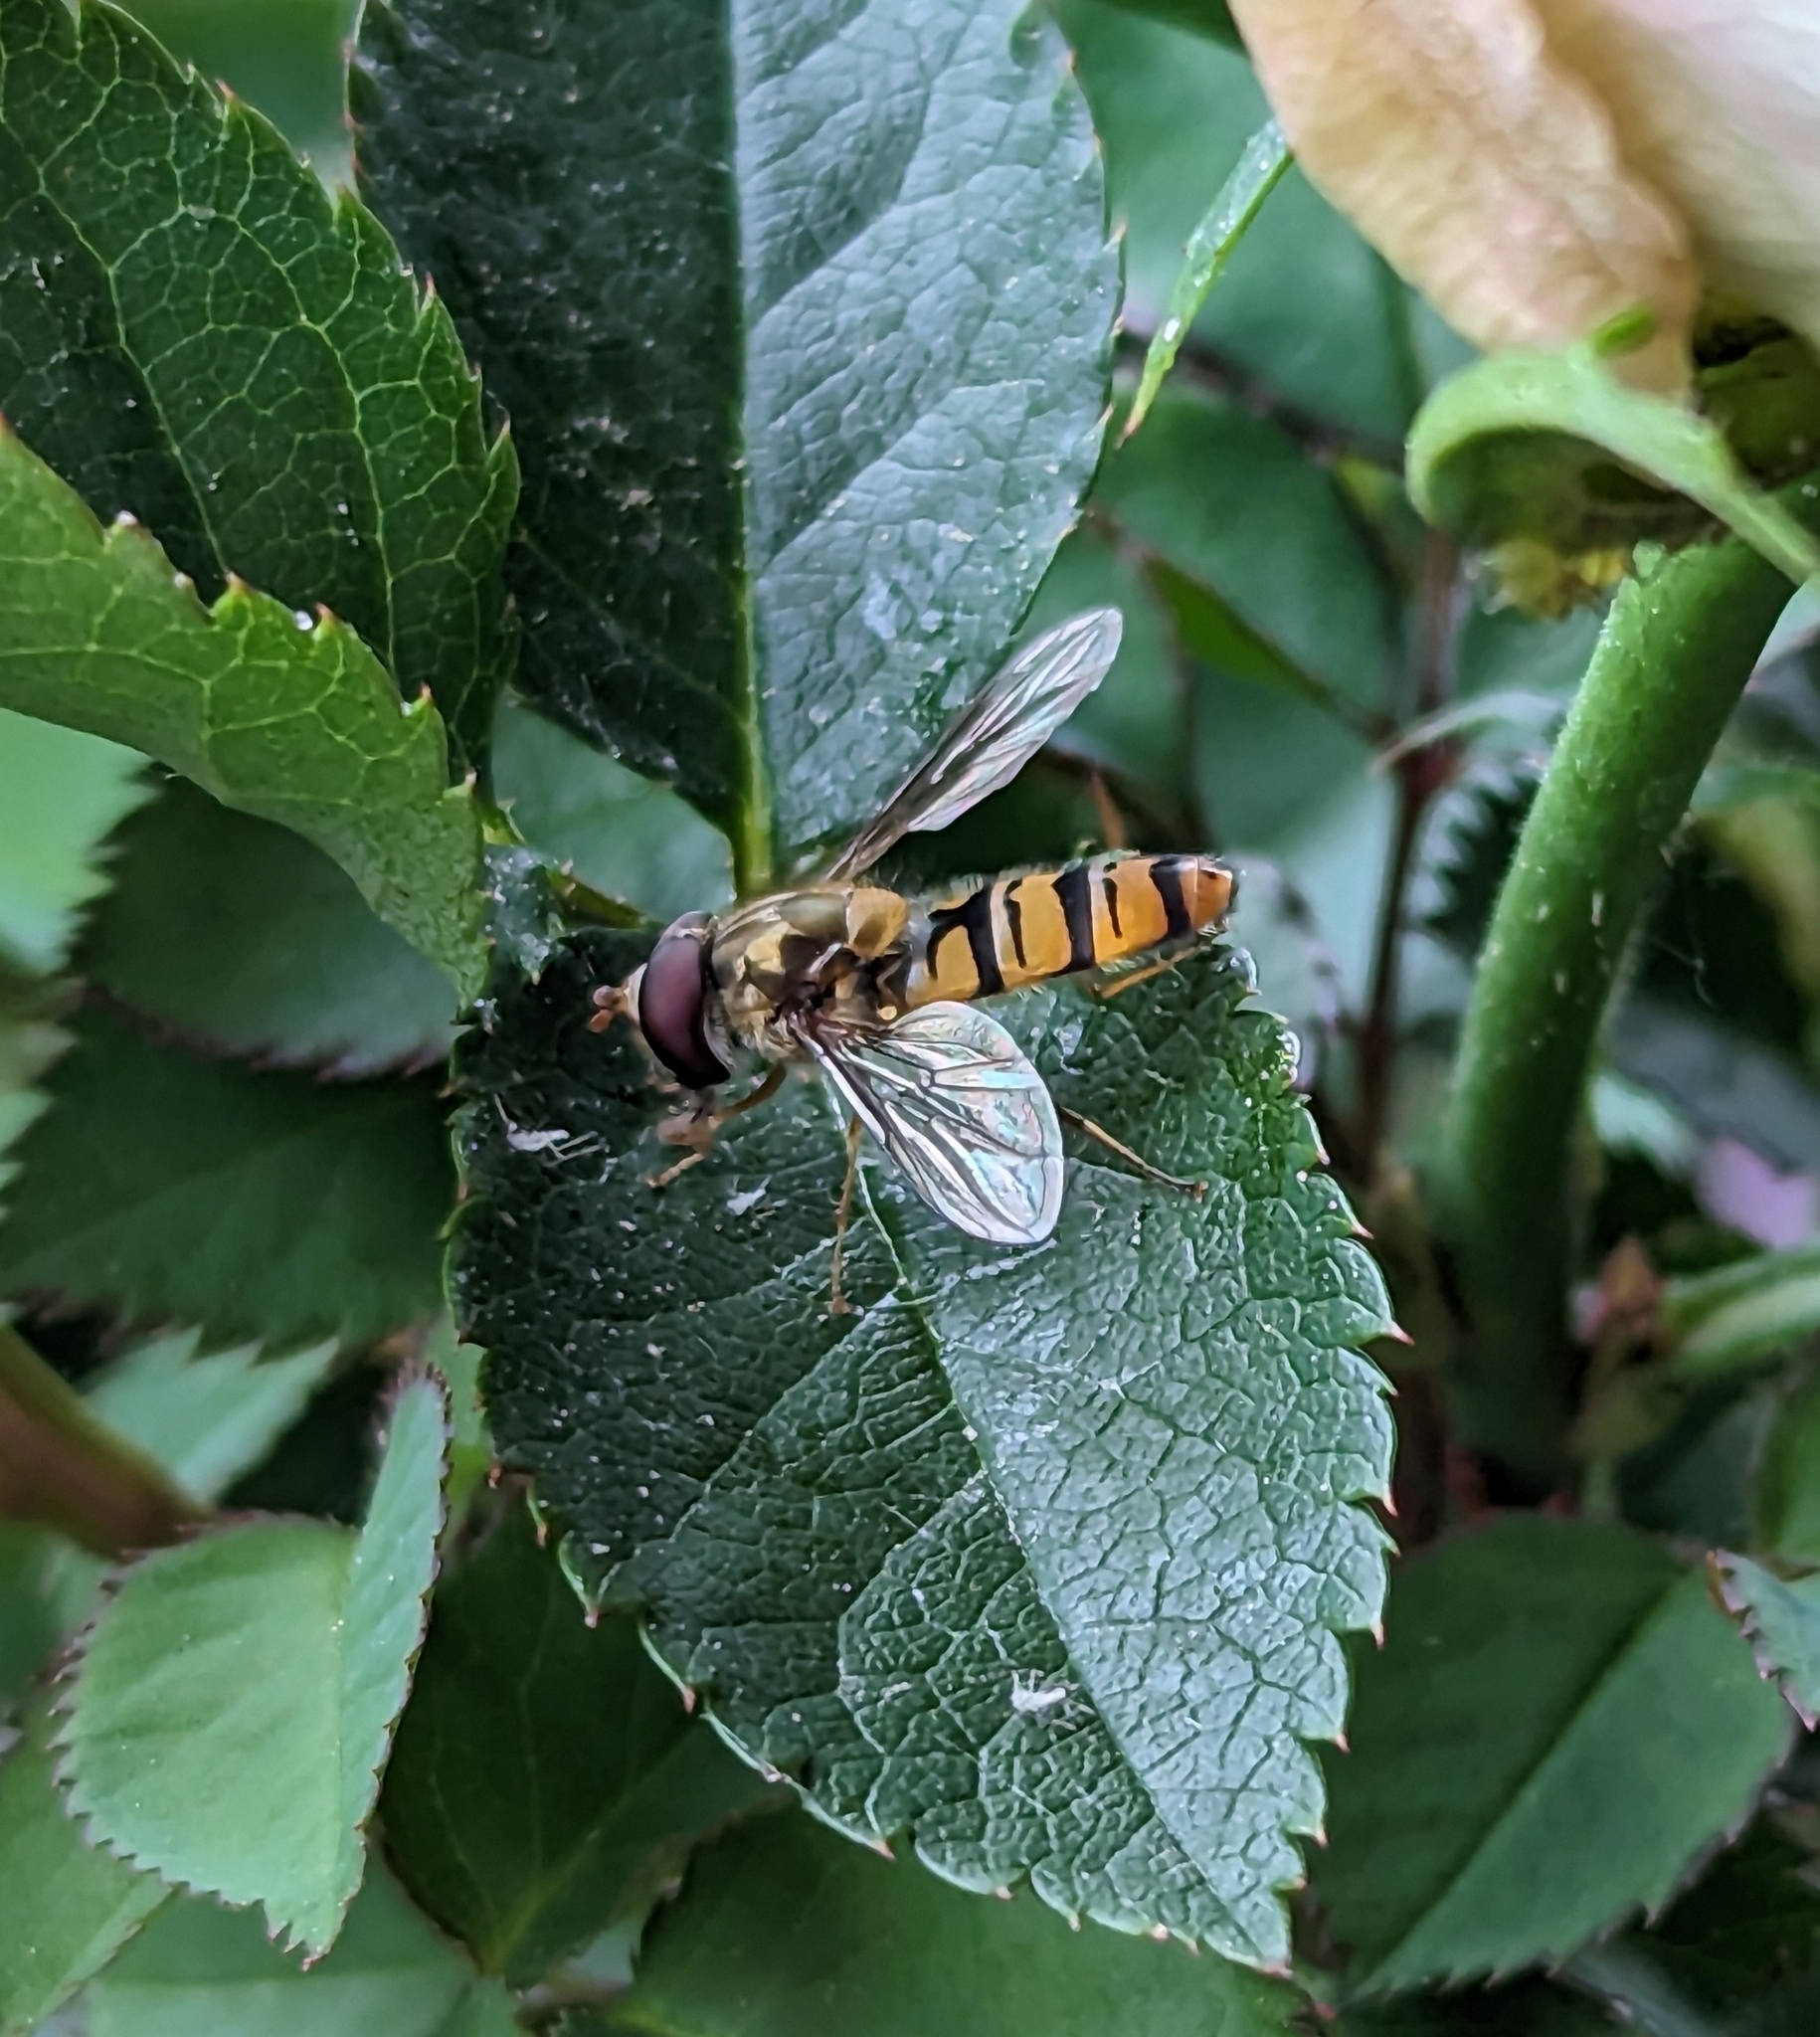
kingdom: Animalia
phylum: Arthropoda
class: Insecta
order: Diptera
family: Syrphidae
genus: Episyrphus
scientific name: Episyrphus balteatus
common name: Marmalade hoverfly
